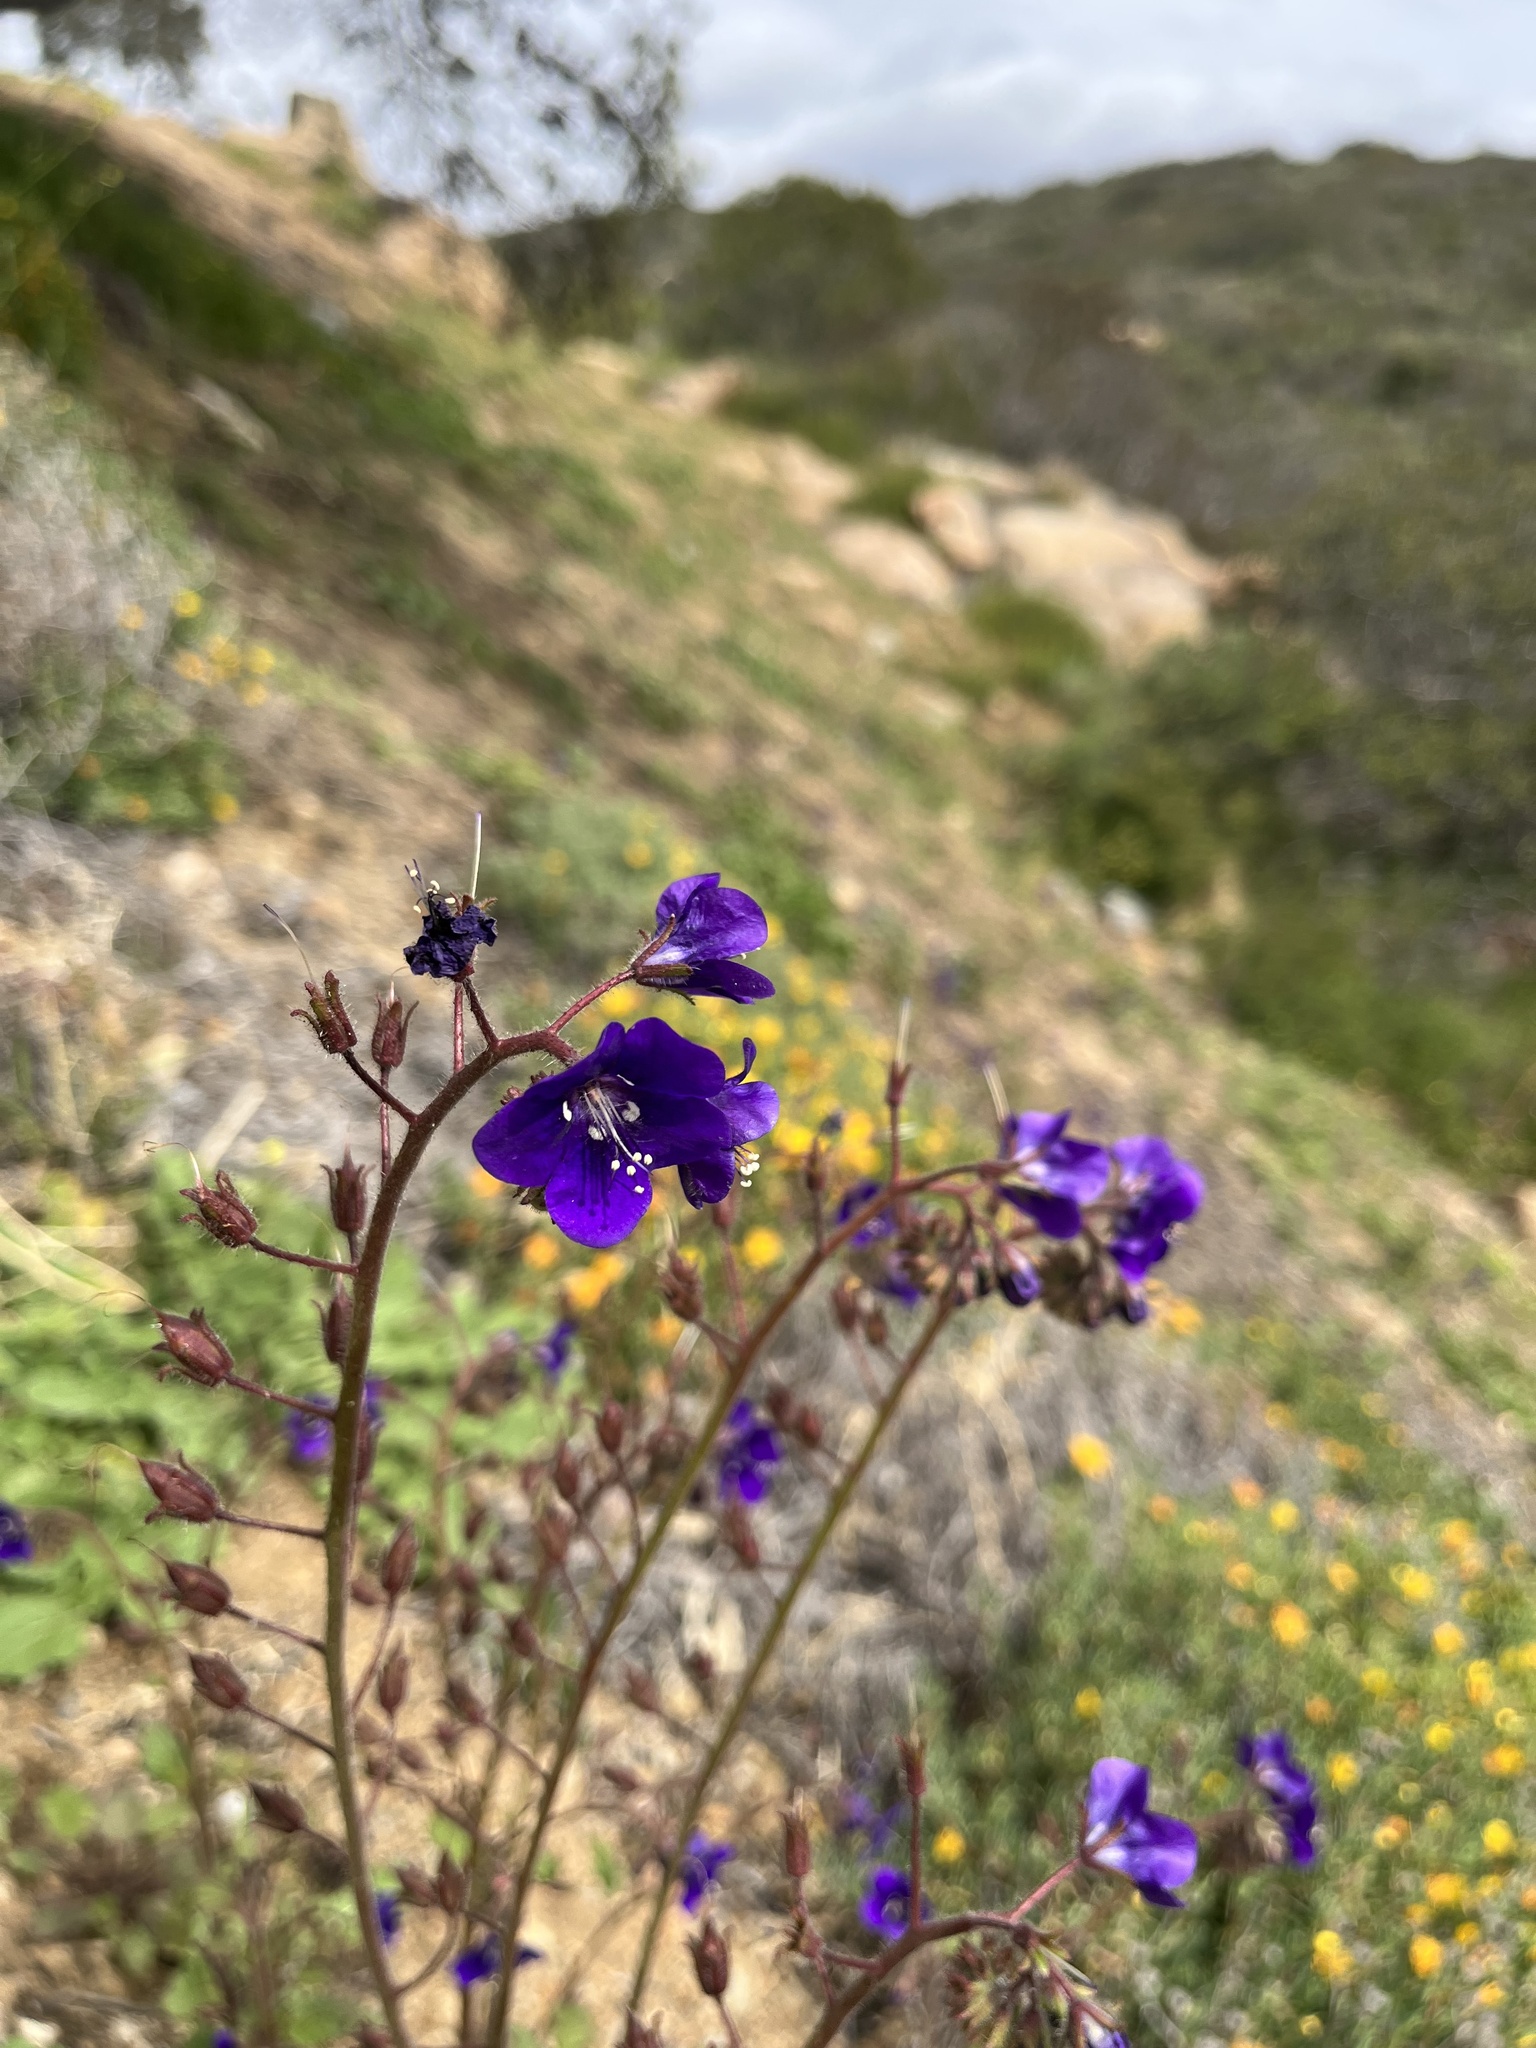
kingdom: Plantae
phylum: Tracheophyta
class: Magnoliopsida
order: Boraginales
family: Hydrophyllaceae
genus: Phacelia
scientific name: Phacelia parryi
